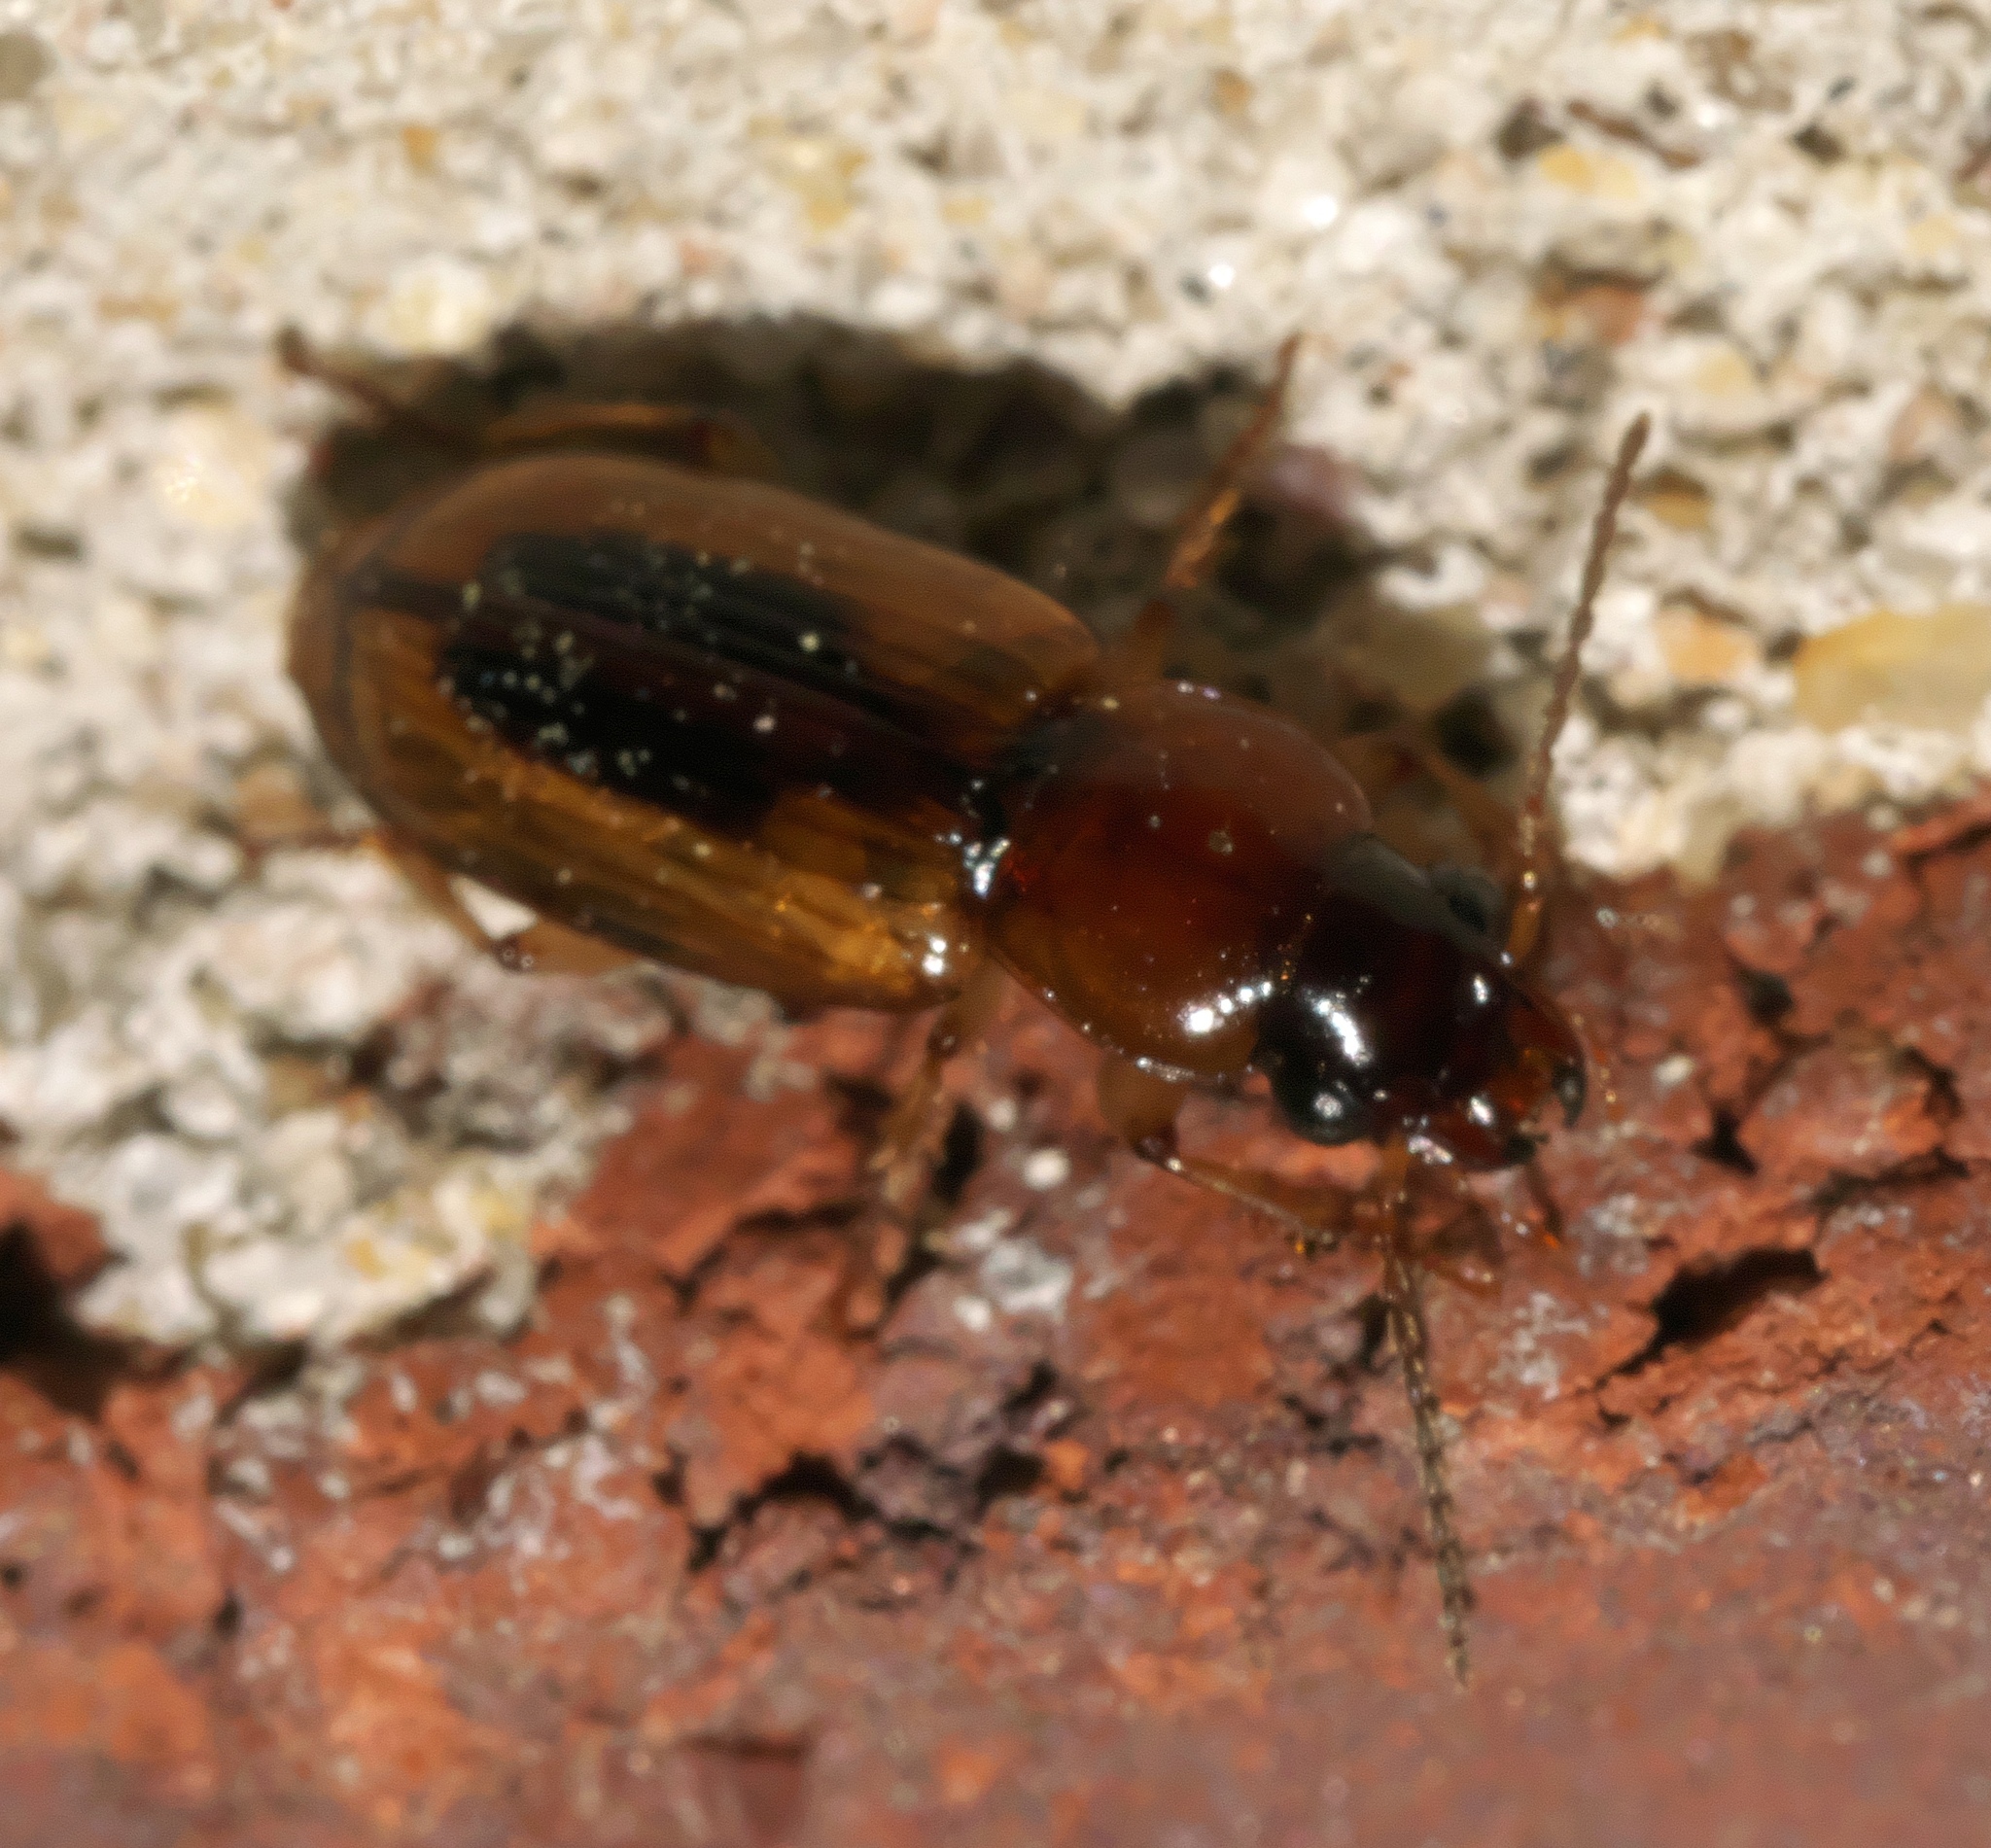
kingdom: Animalia
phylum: Arthropoda
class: Insecta
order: Coleoptera
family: Carabidae
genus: Stenolophus
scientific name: Stenolophus lecontei
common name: Leconte's seedcorn beetle
